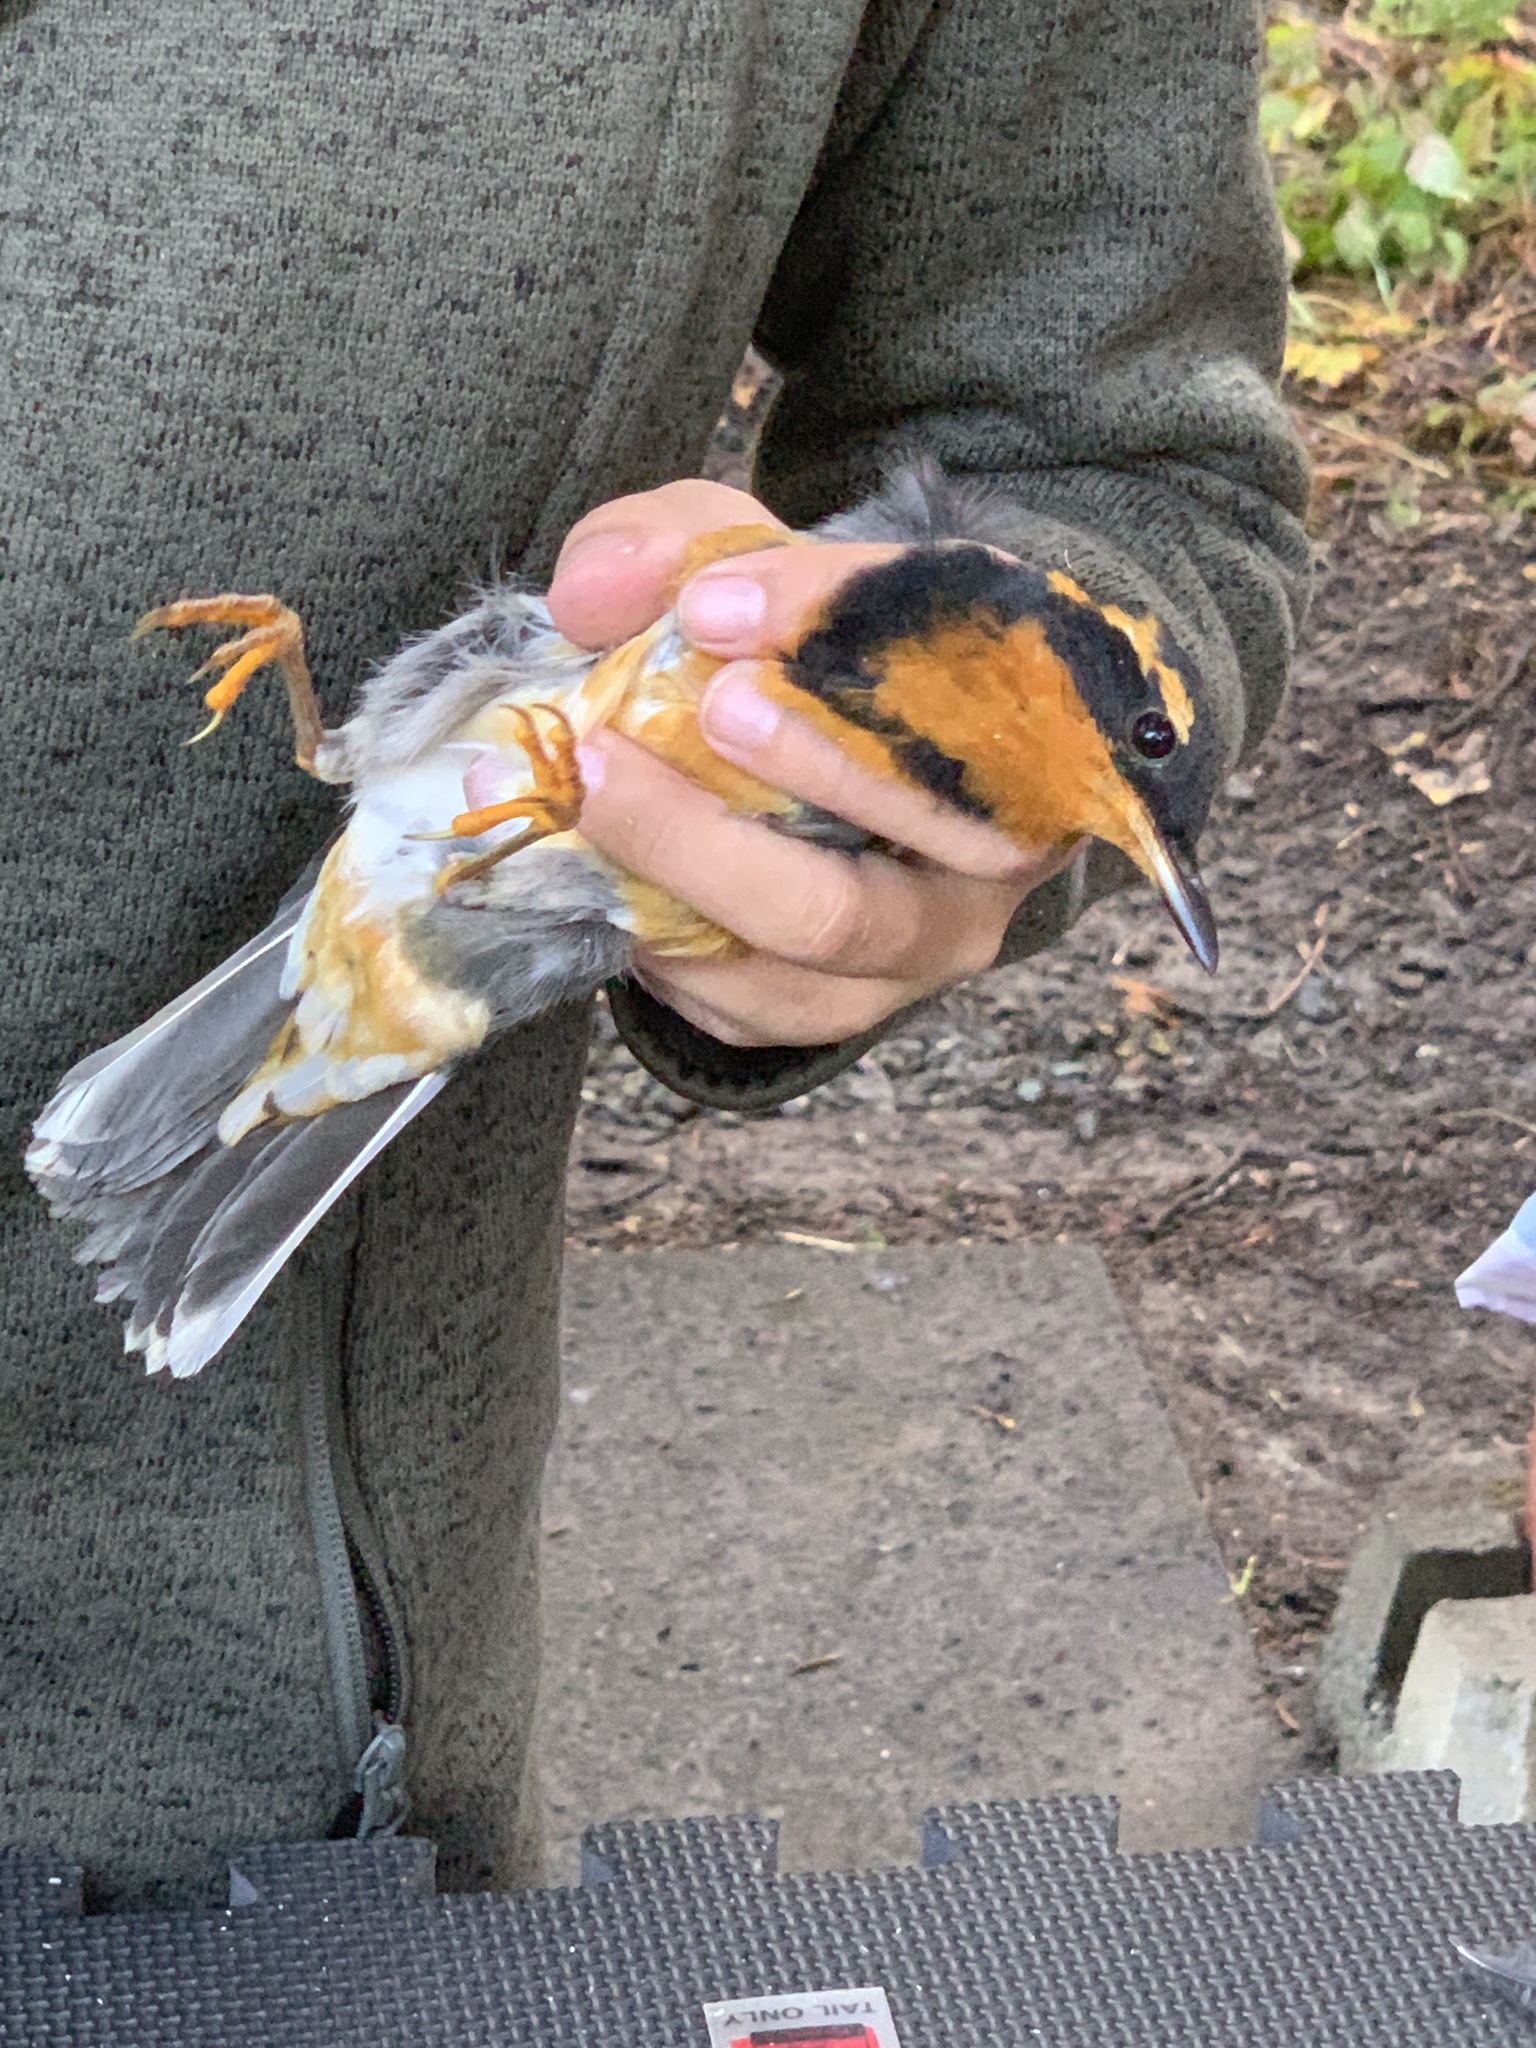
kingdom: Animalia
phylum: Chordata
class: Aves
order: Passeriformes
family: Turdidae
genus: Ixoreus
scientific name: Ixoreus naevius
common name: Varied thrush
